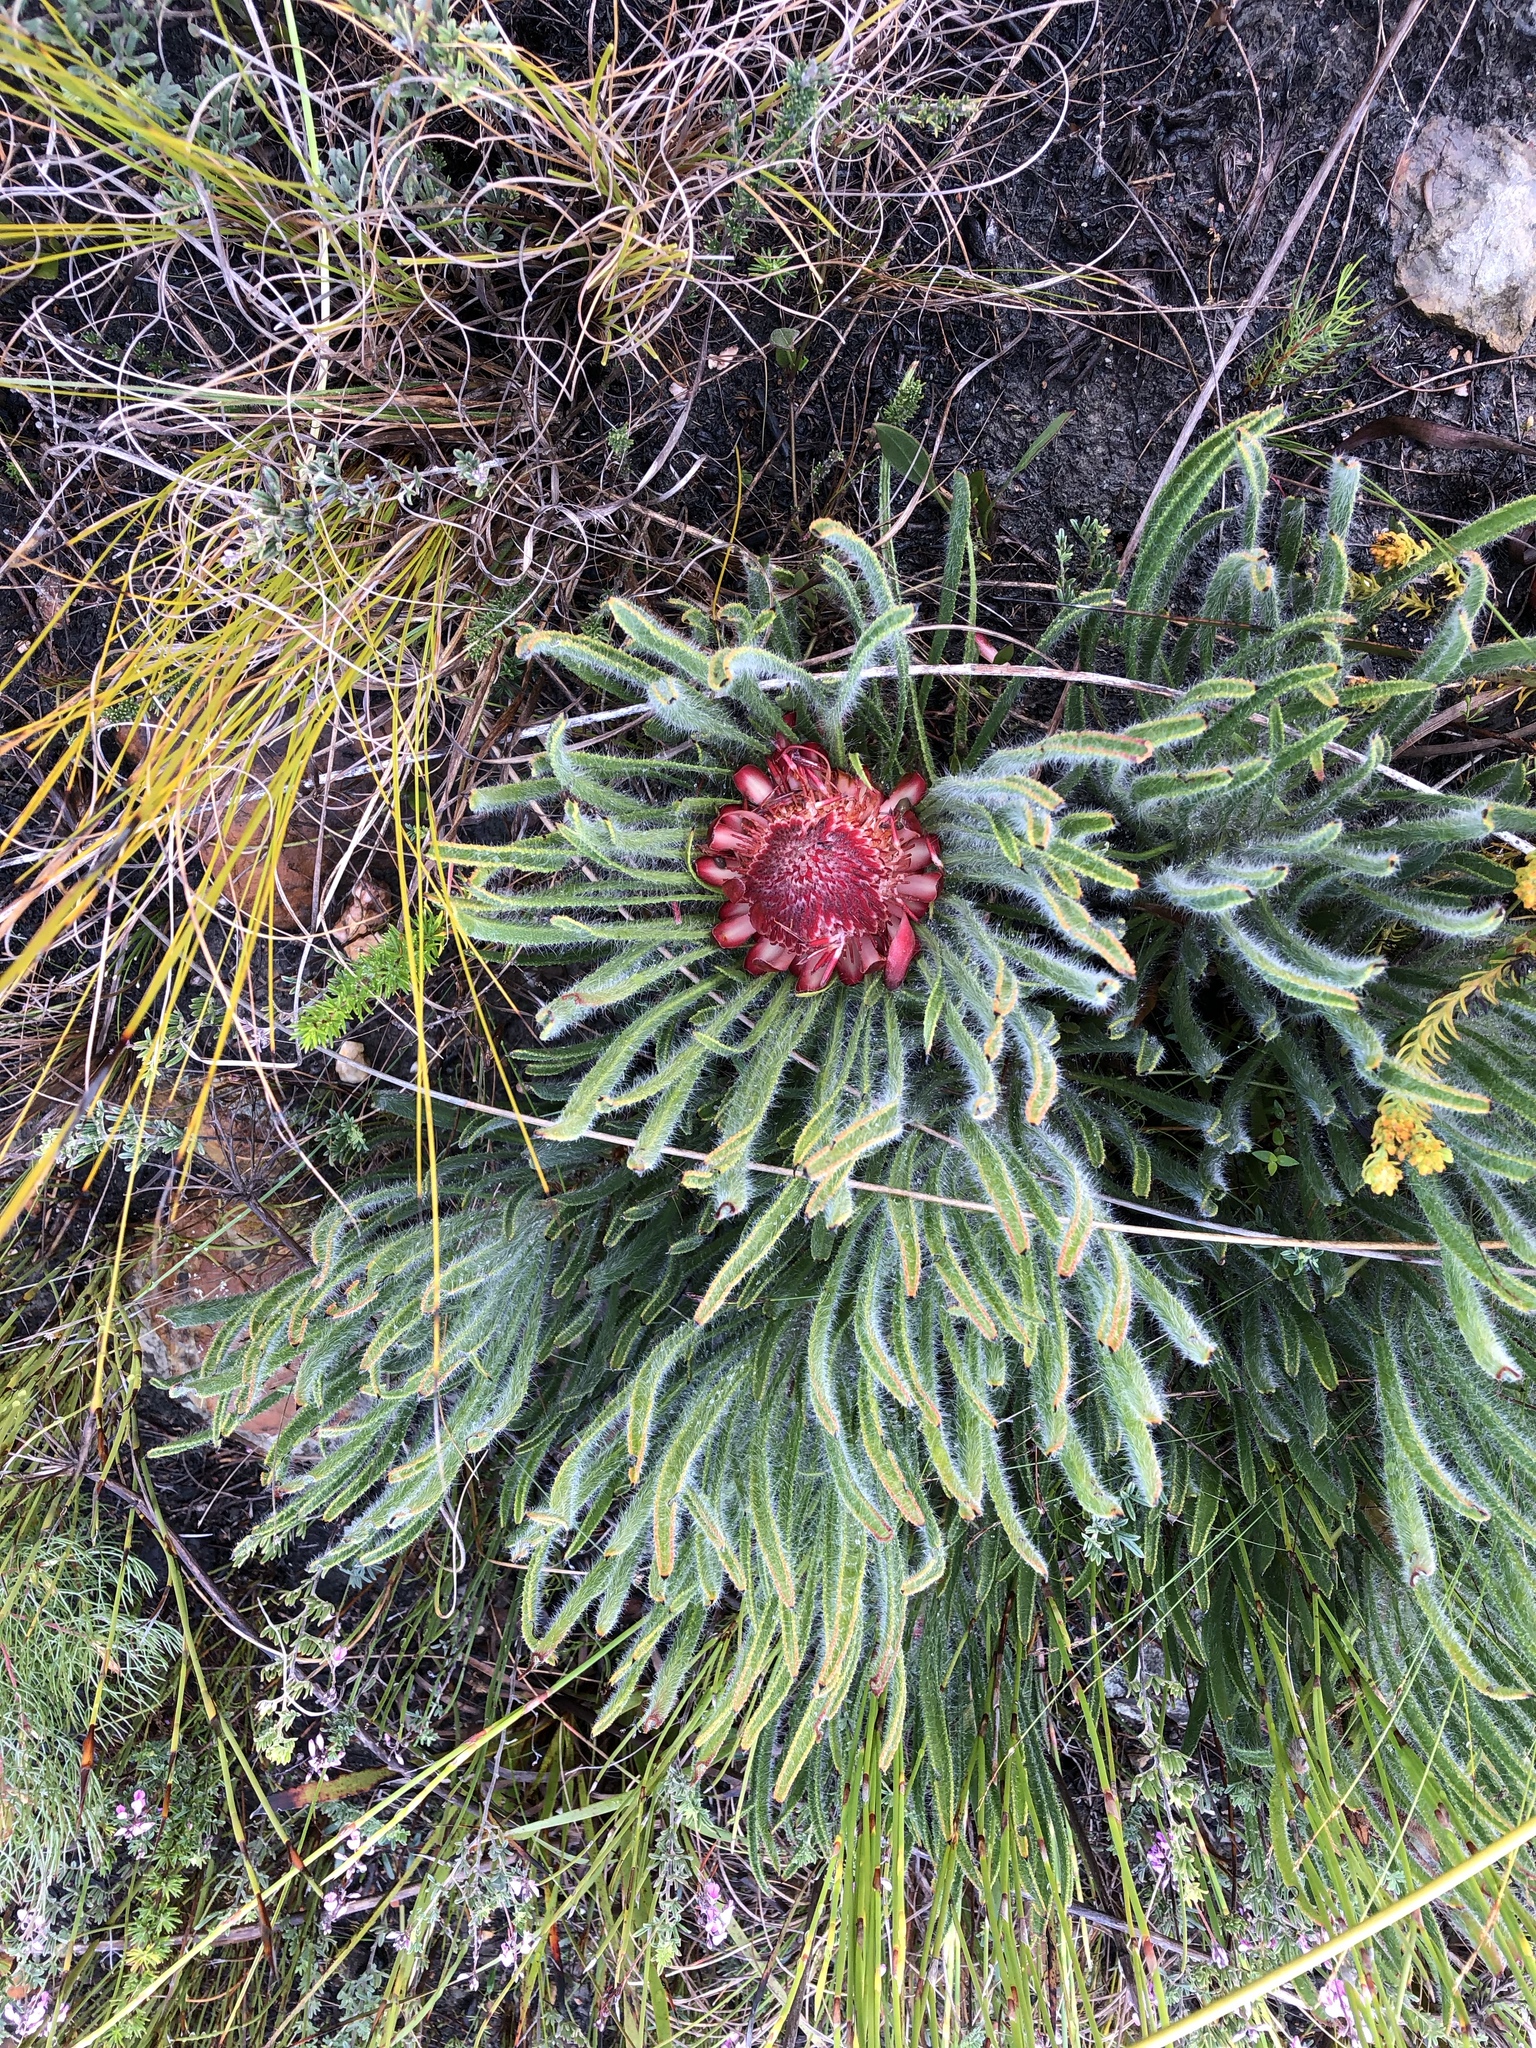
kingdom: Plantae
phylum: Tracheophyta
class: Magnoliopsida
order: Proteales
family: Proteaceae
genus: Protea
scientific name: Protea denticulata
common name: Tooth-leaf sugarbush
